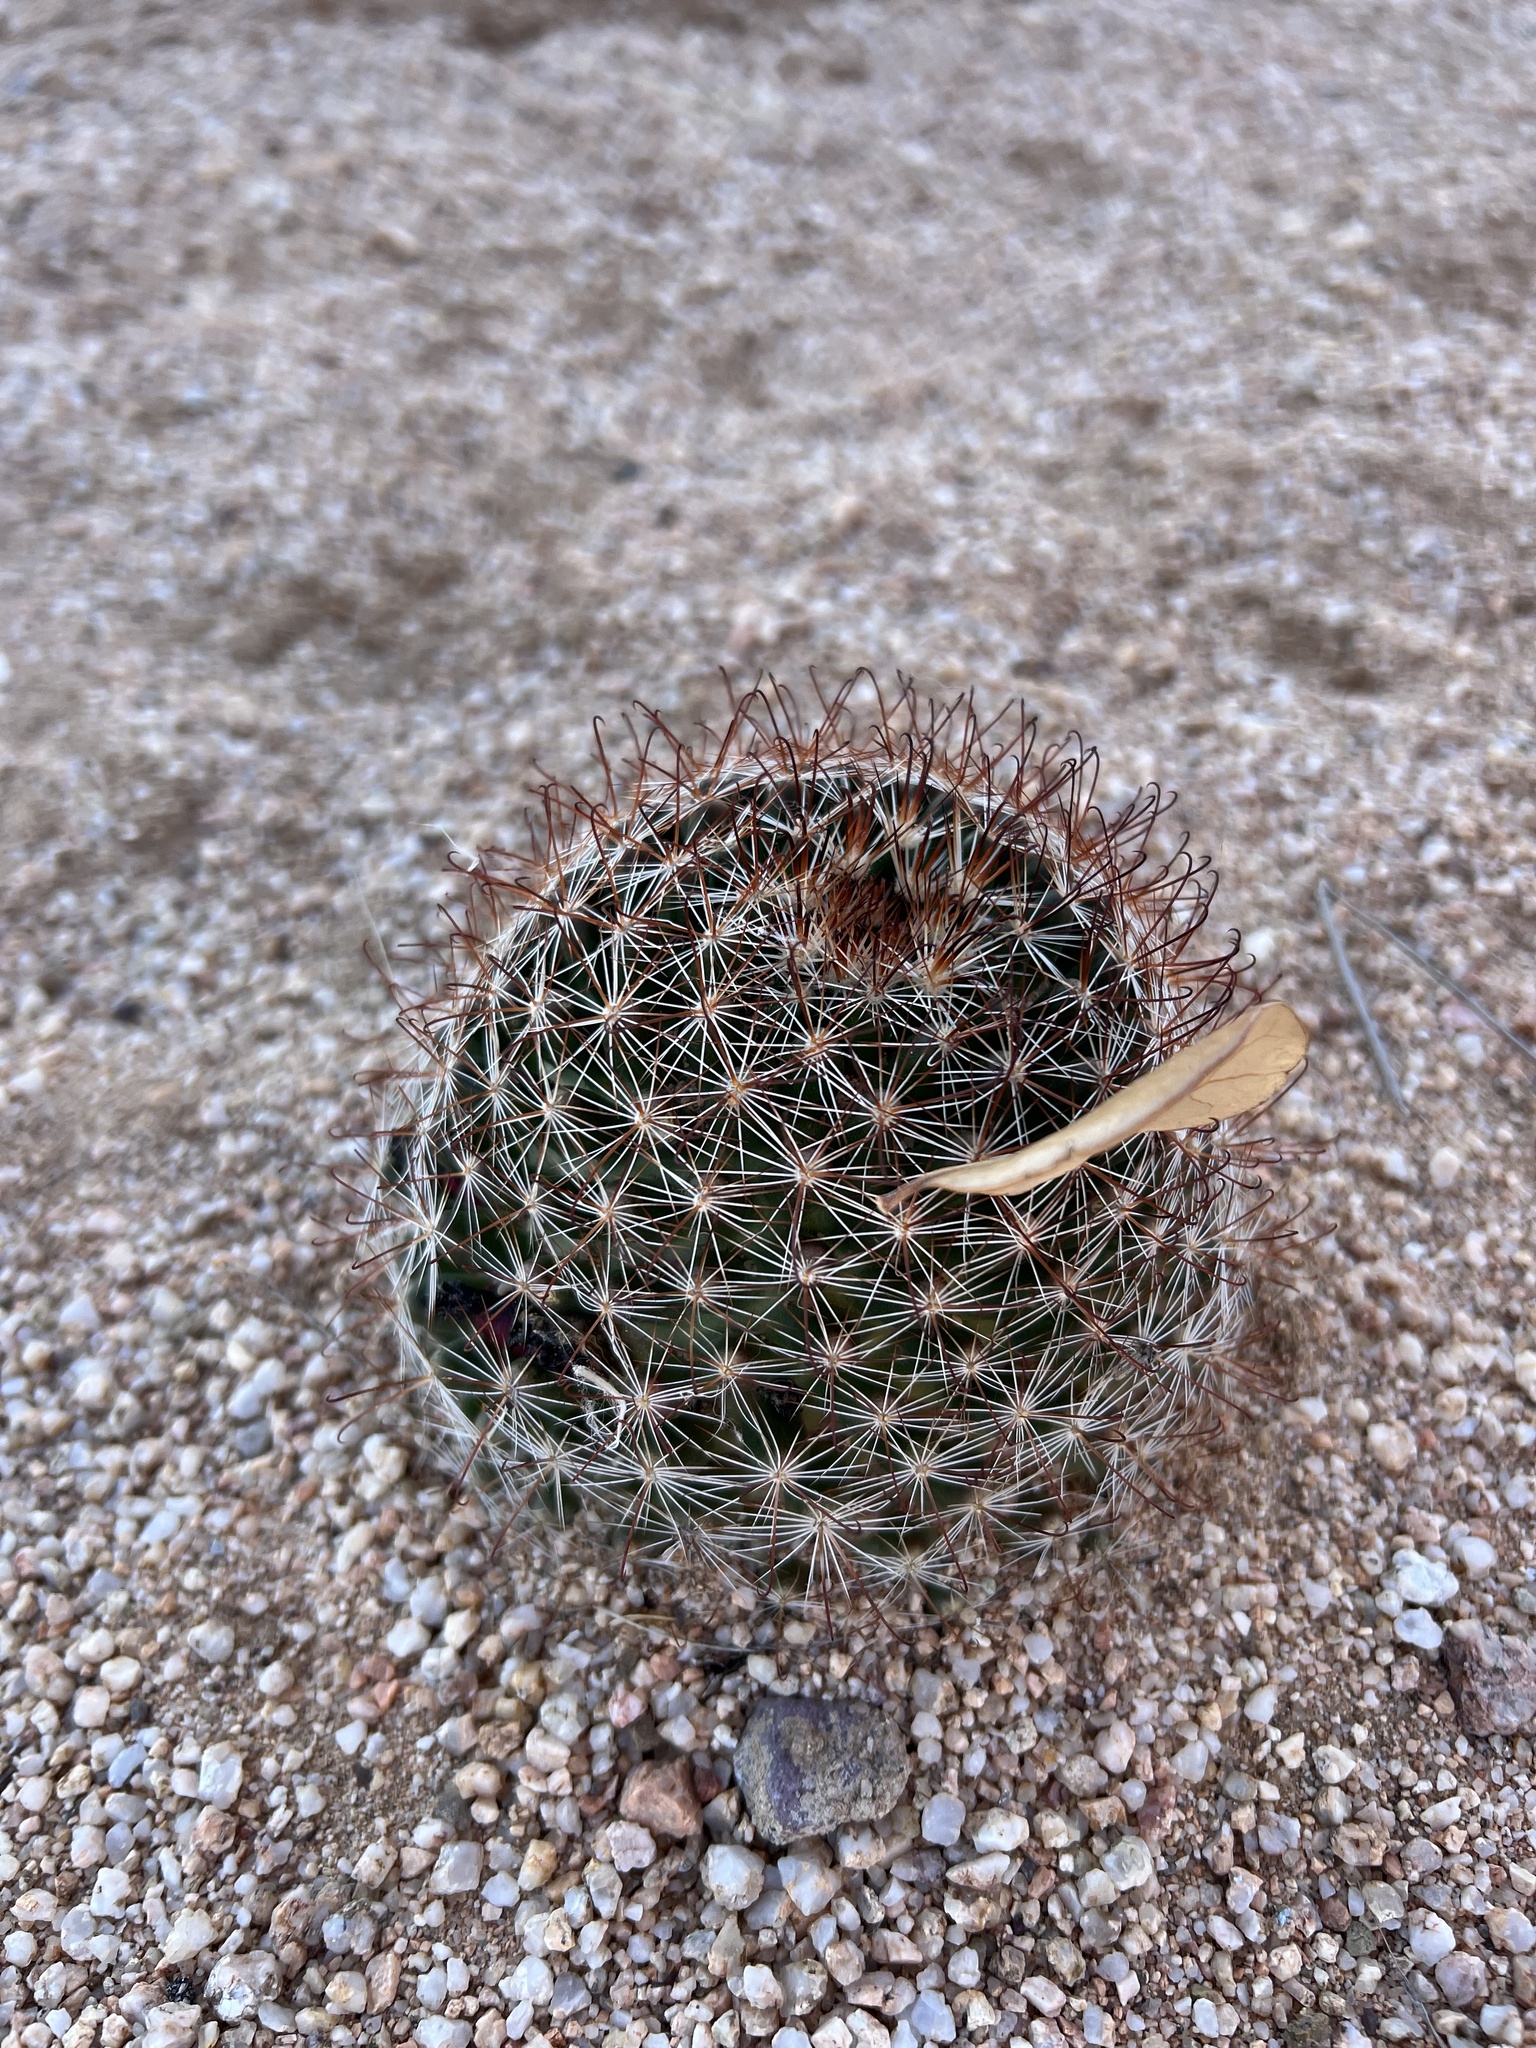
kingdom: Plantae
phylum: Tracheophyta
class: Magnoliopsida
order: Caryophyllales
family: Cactaceae
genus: Cochemiea
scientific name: Cochemiea wrightii
